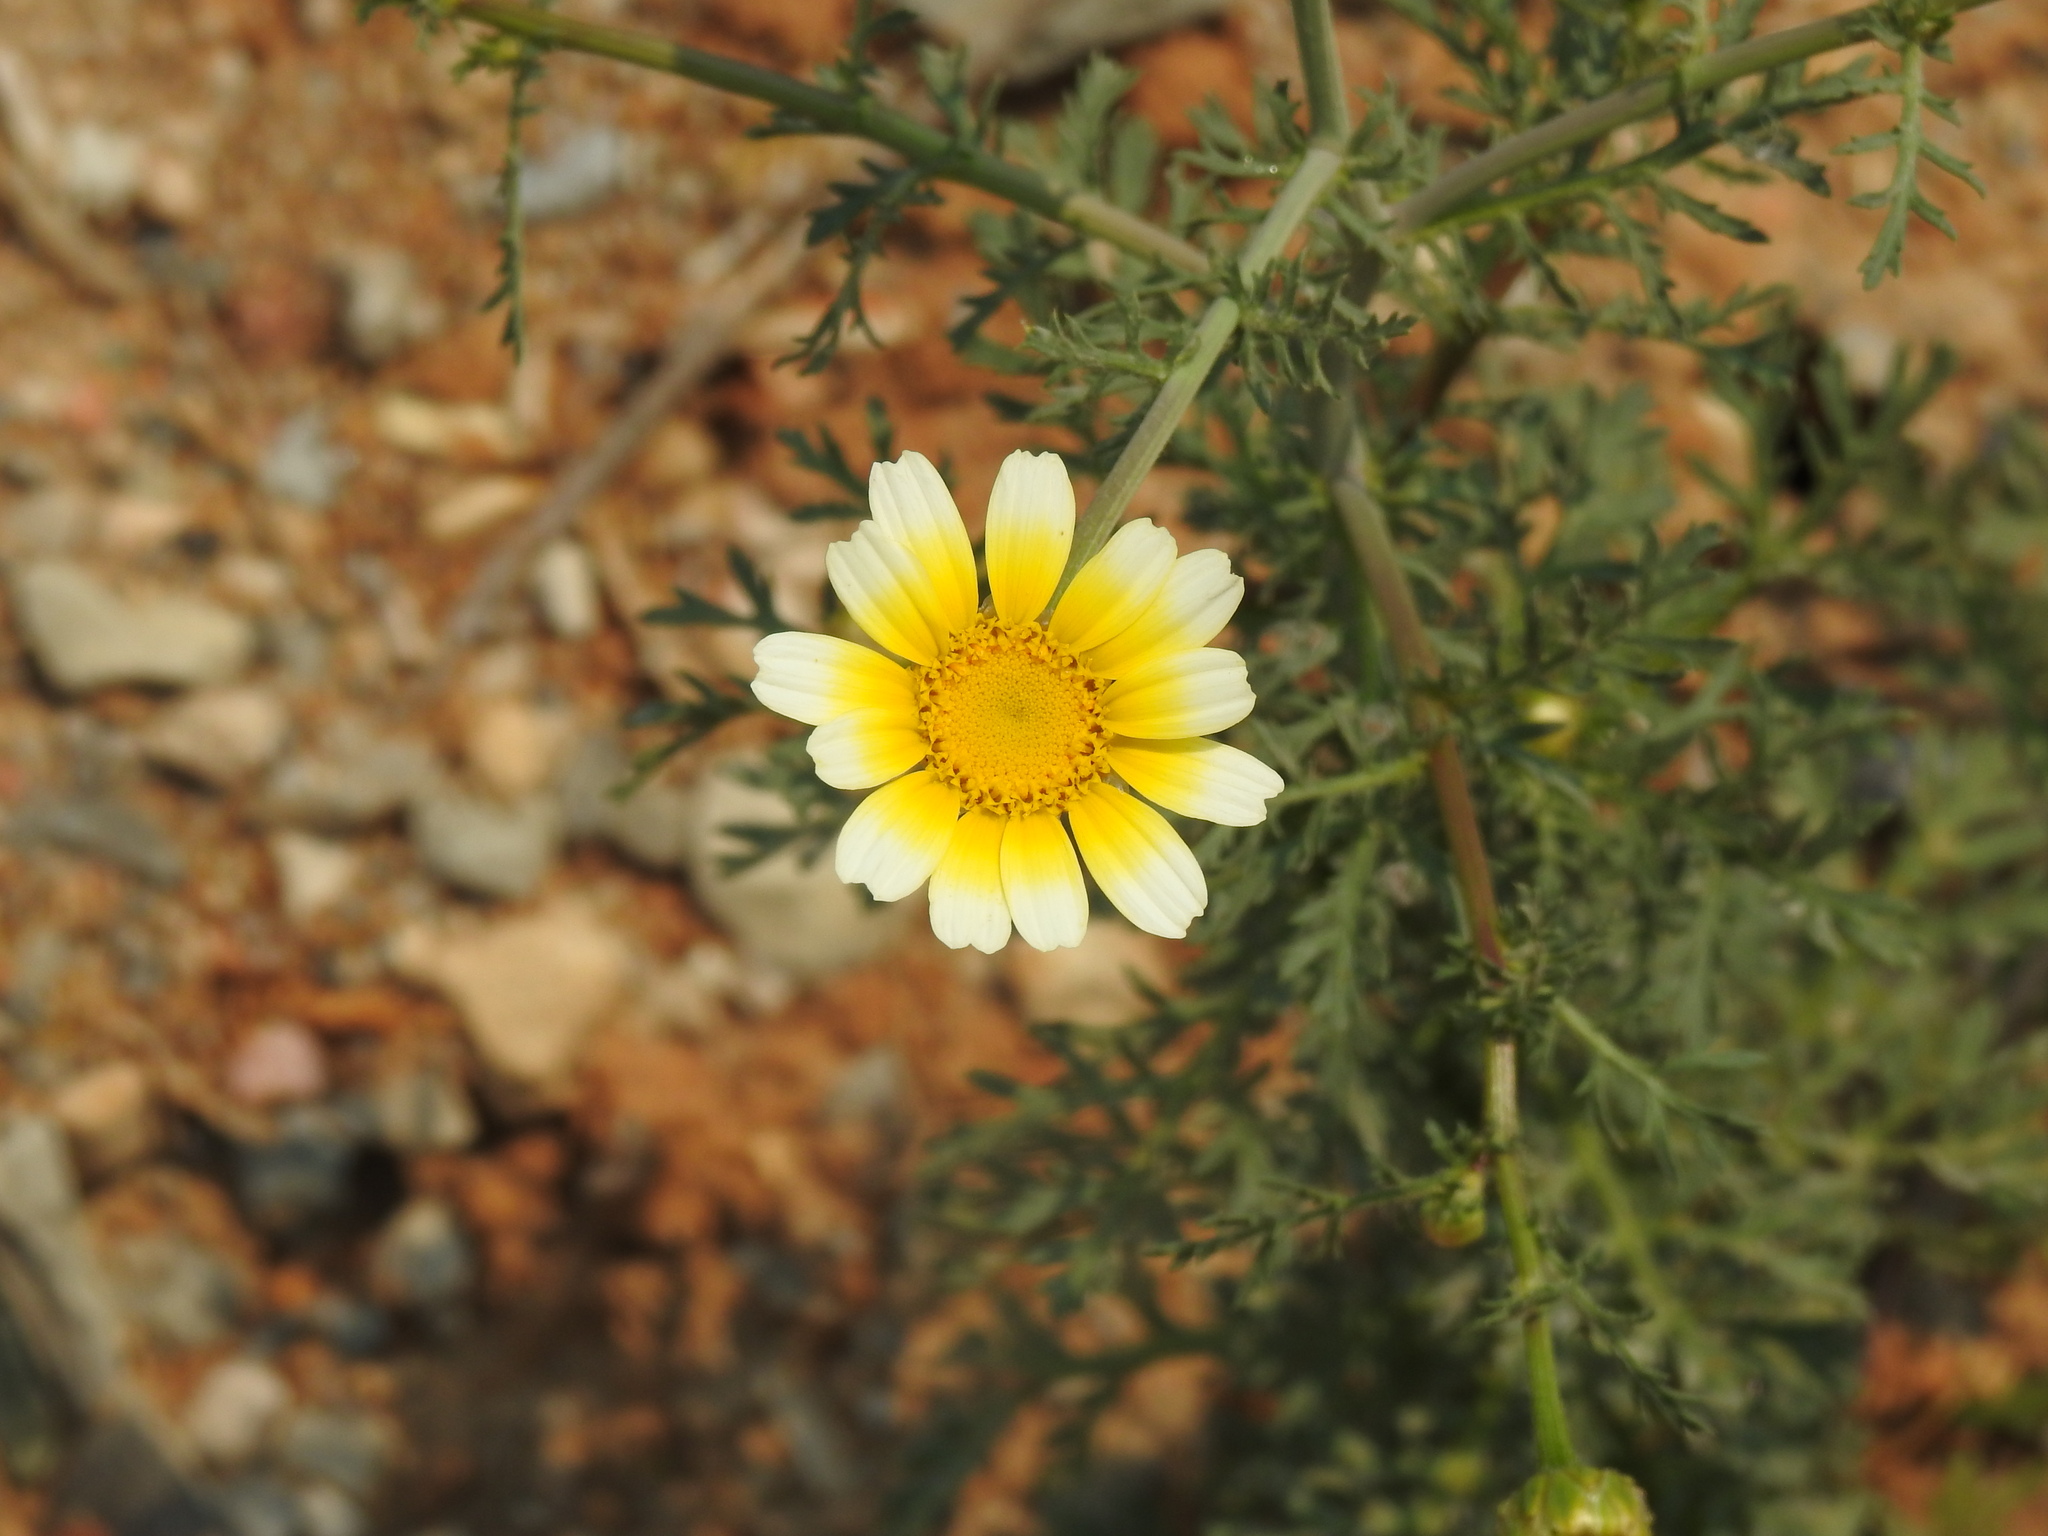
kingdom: Plantae
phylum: Tracheophyta
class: Magnoliopsida
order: Asterales
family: Asteraceae
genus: Glebionis
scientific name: Glebionis coronaria
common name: Crowndaisy
